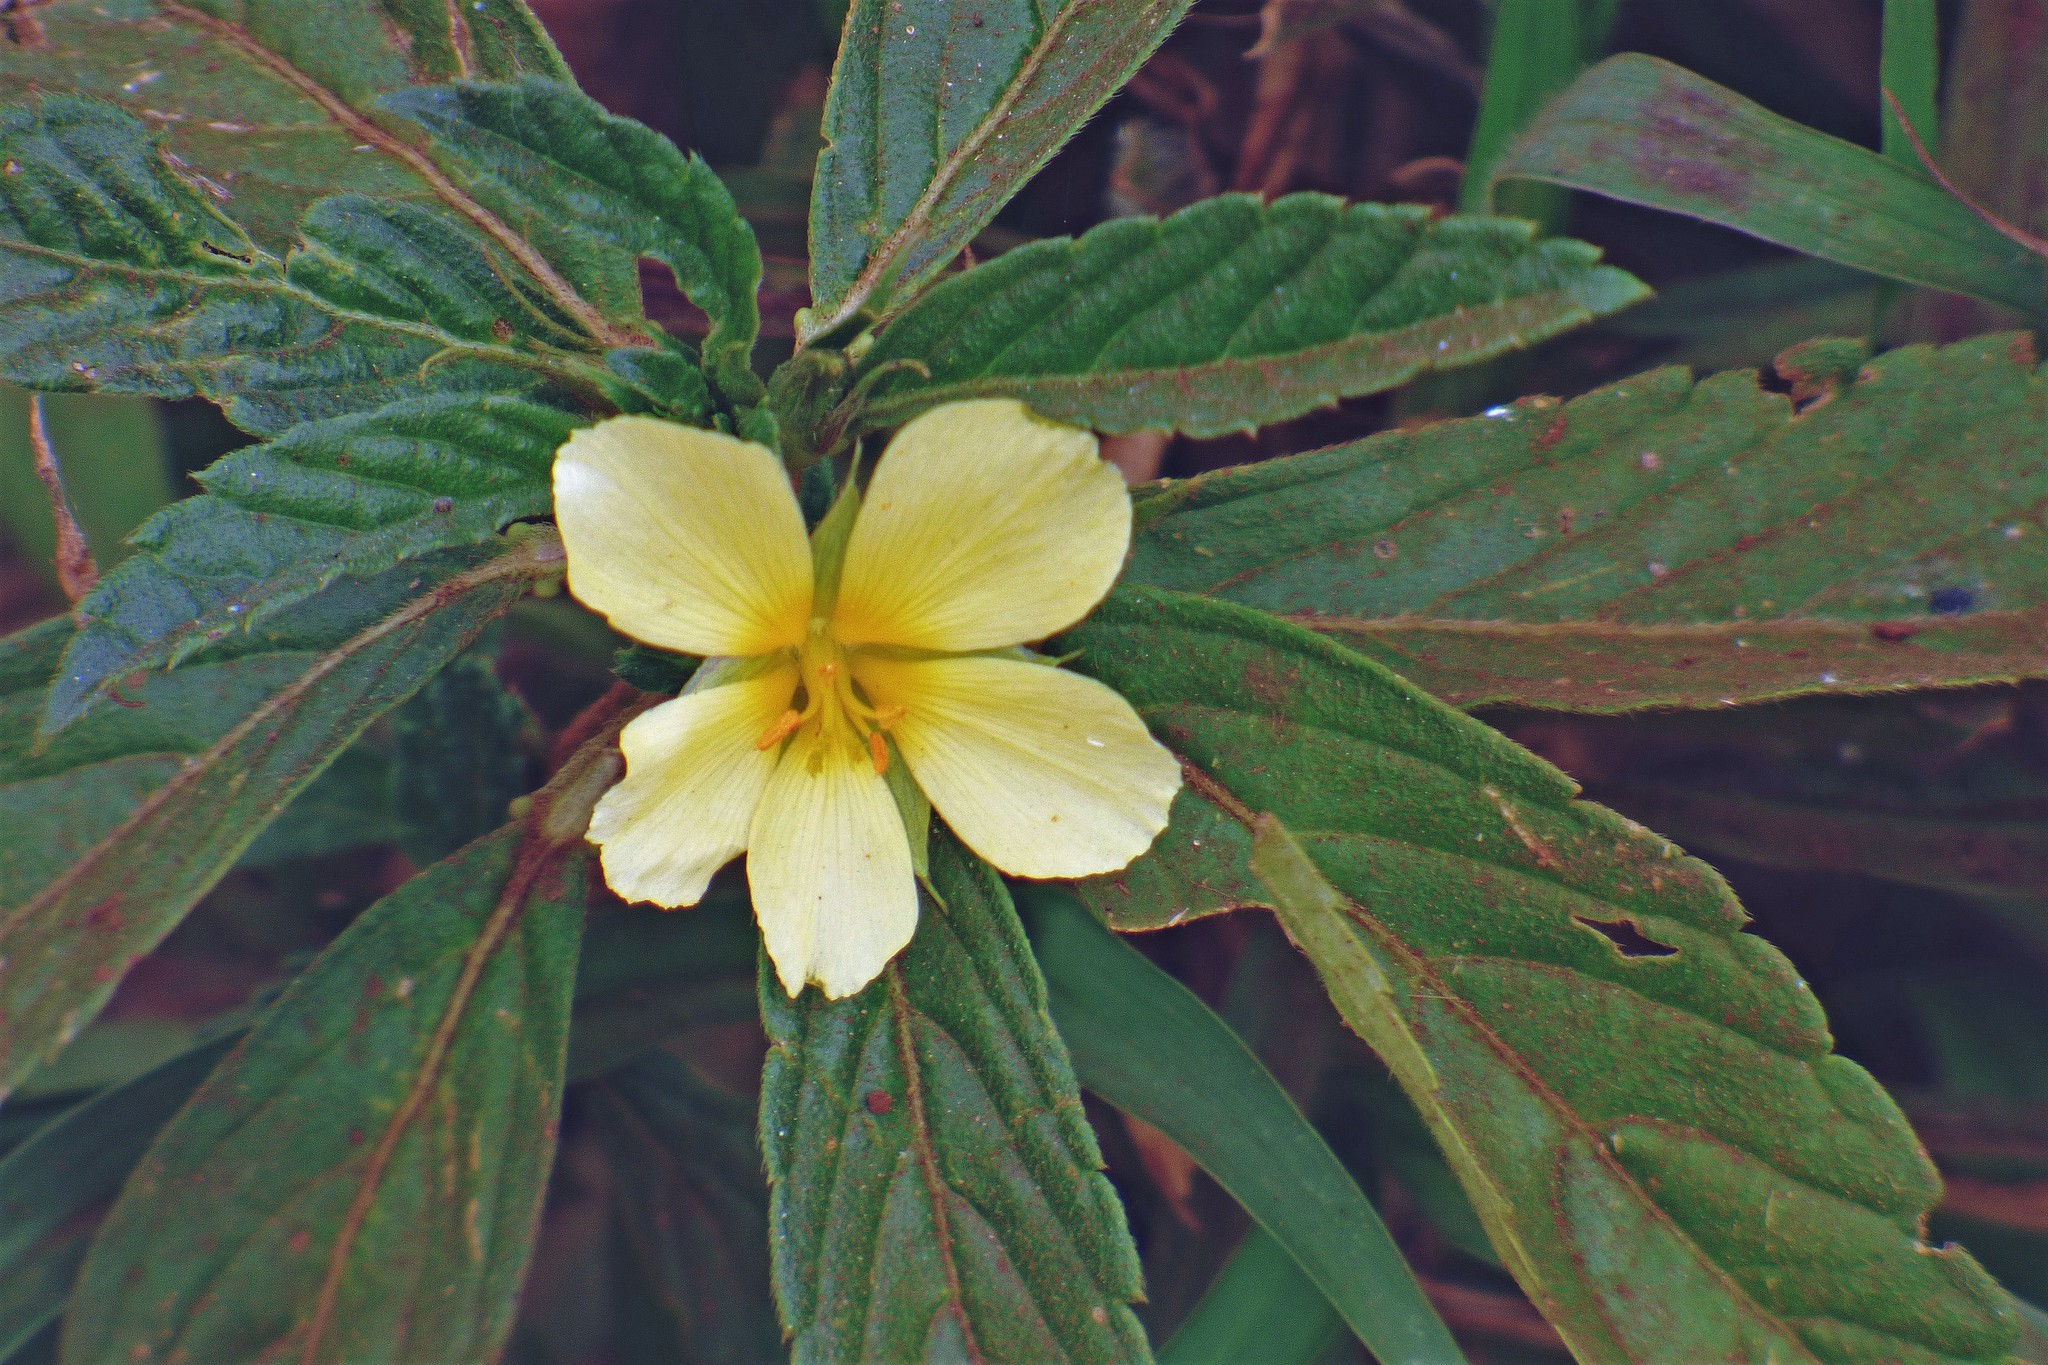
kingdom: Plantae
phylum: Tracheophyta
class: Magnoliopsida
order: Malpighiales
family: Turneraceae
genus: Turnera
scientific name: Turnera orientalis
